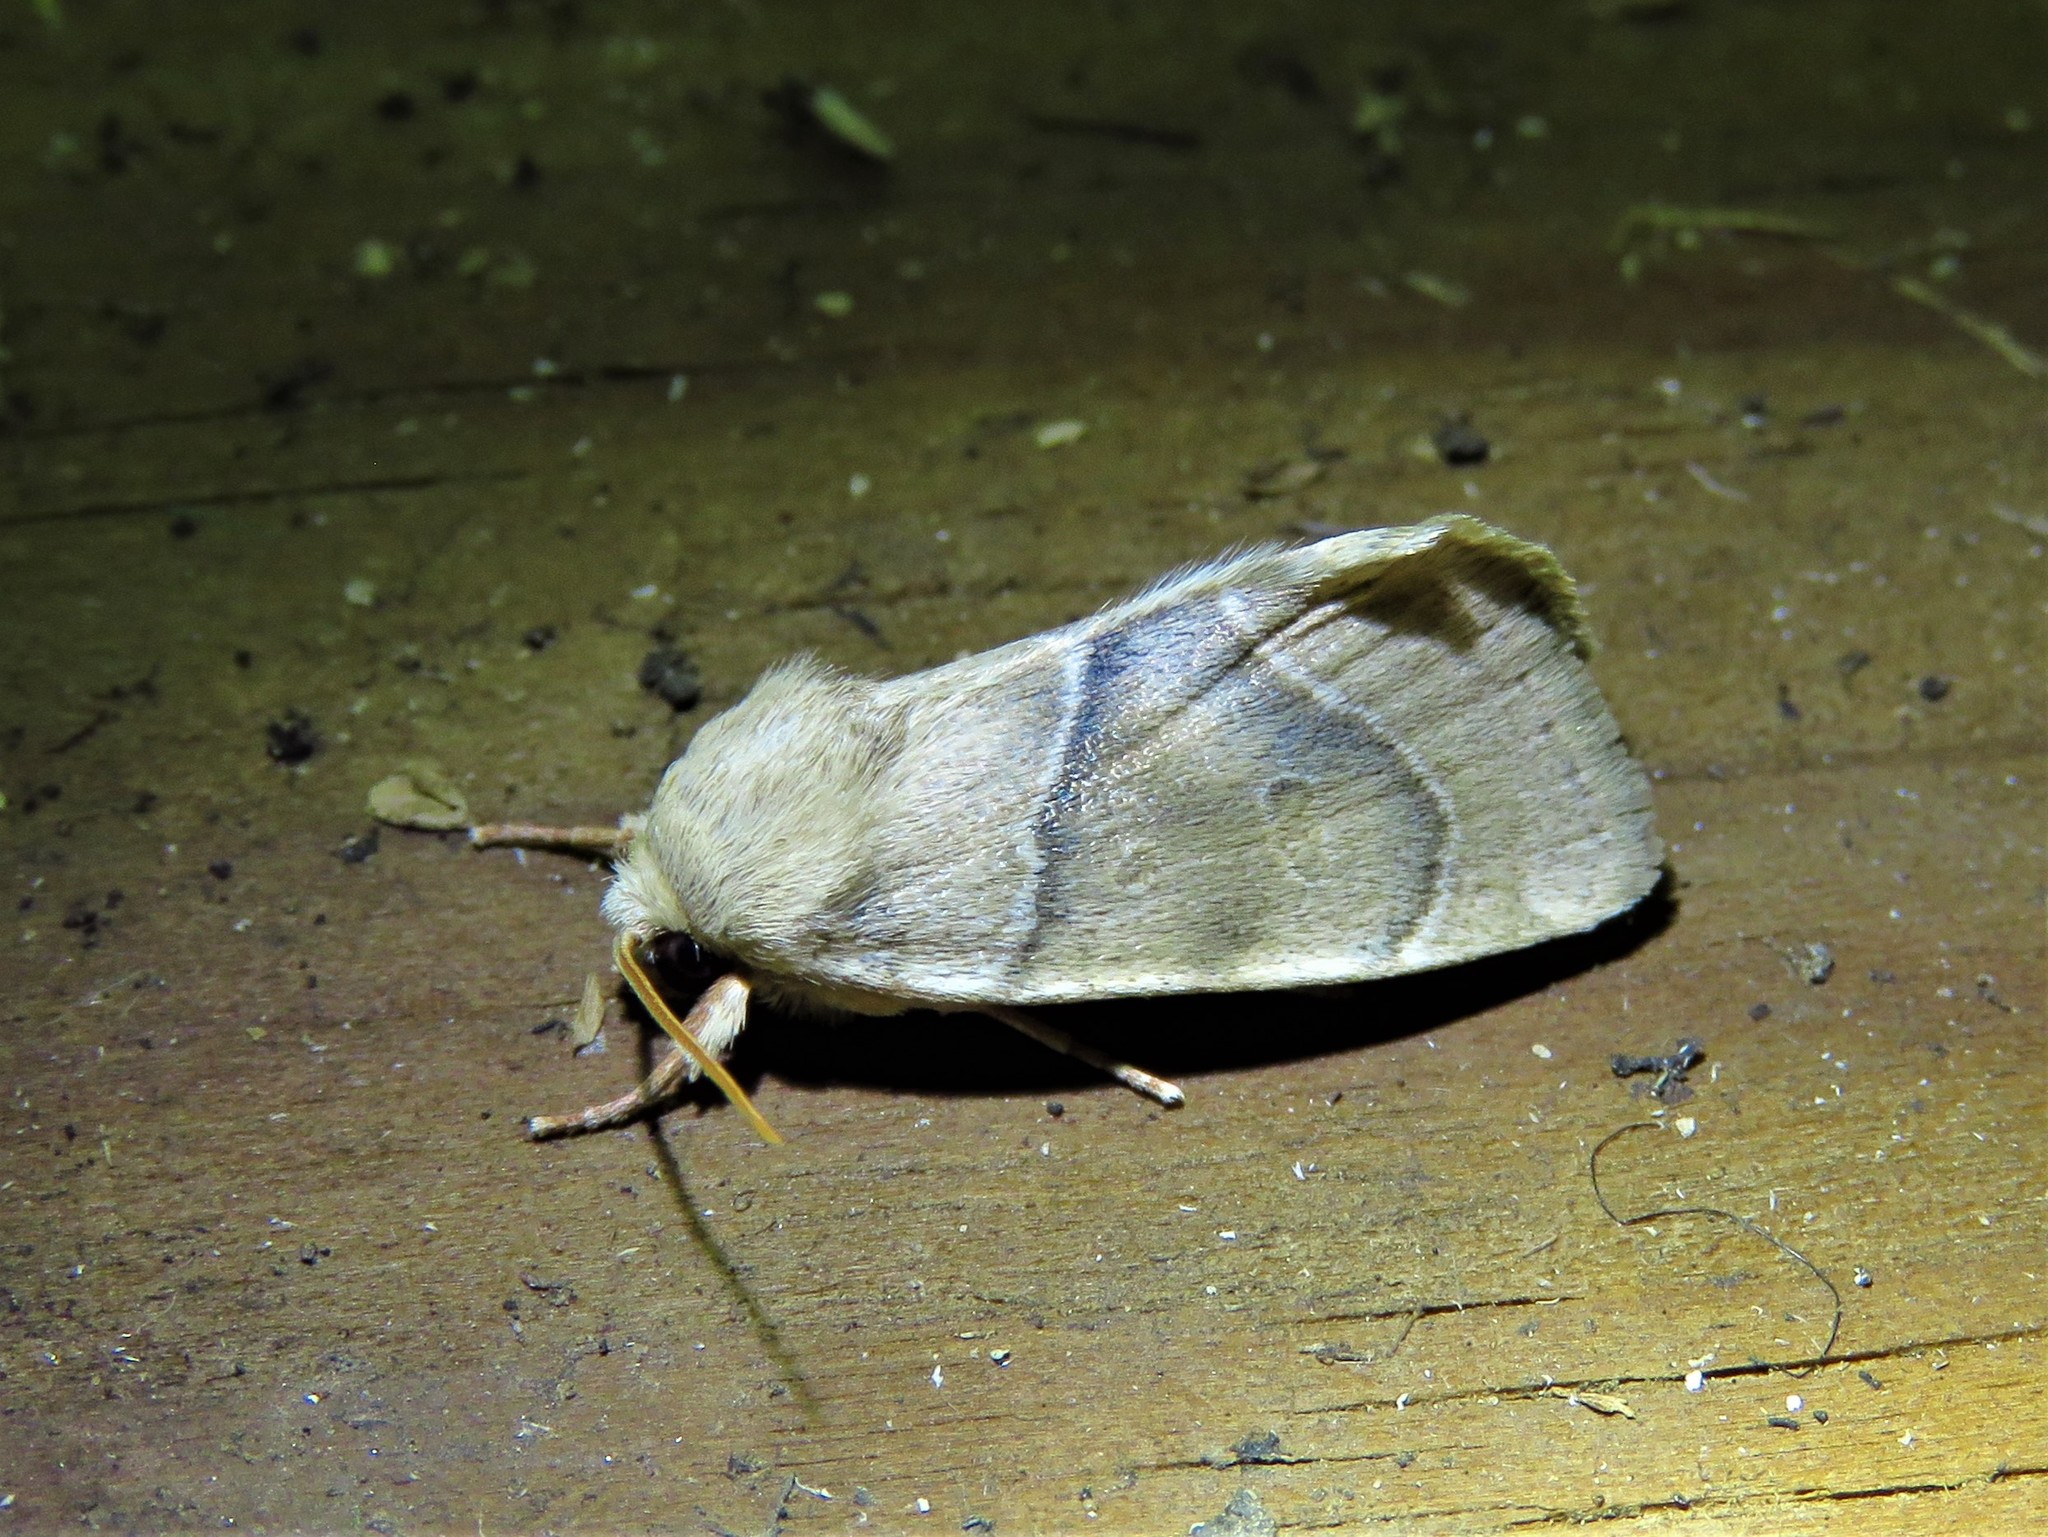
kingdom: Animalia
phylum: Arthropoda
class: Insecta
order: Lepidoptera
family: Noctuidae
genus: Cosmia
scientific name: Cosmia calami
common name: American dun-bar moth
